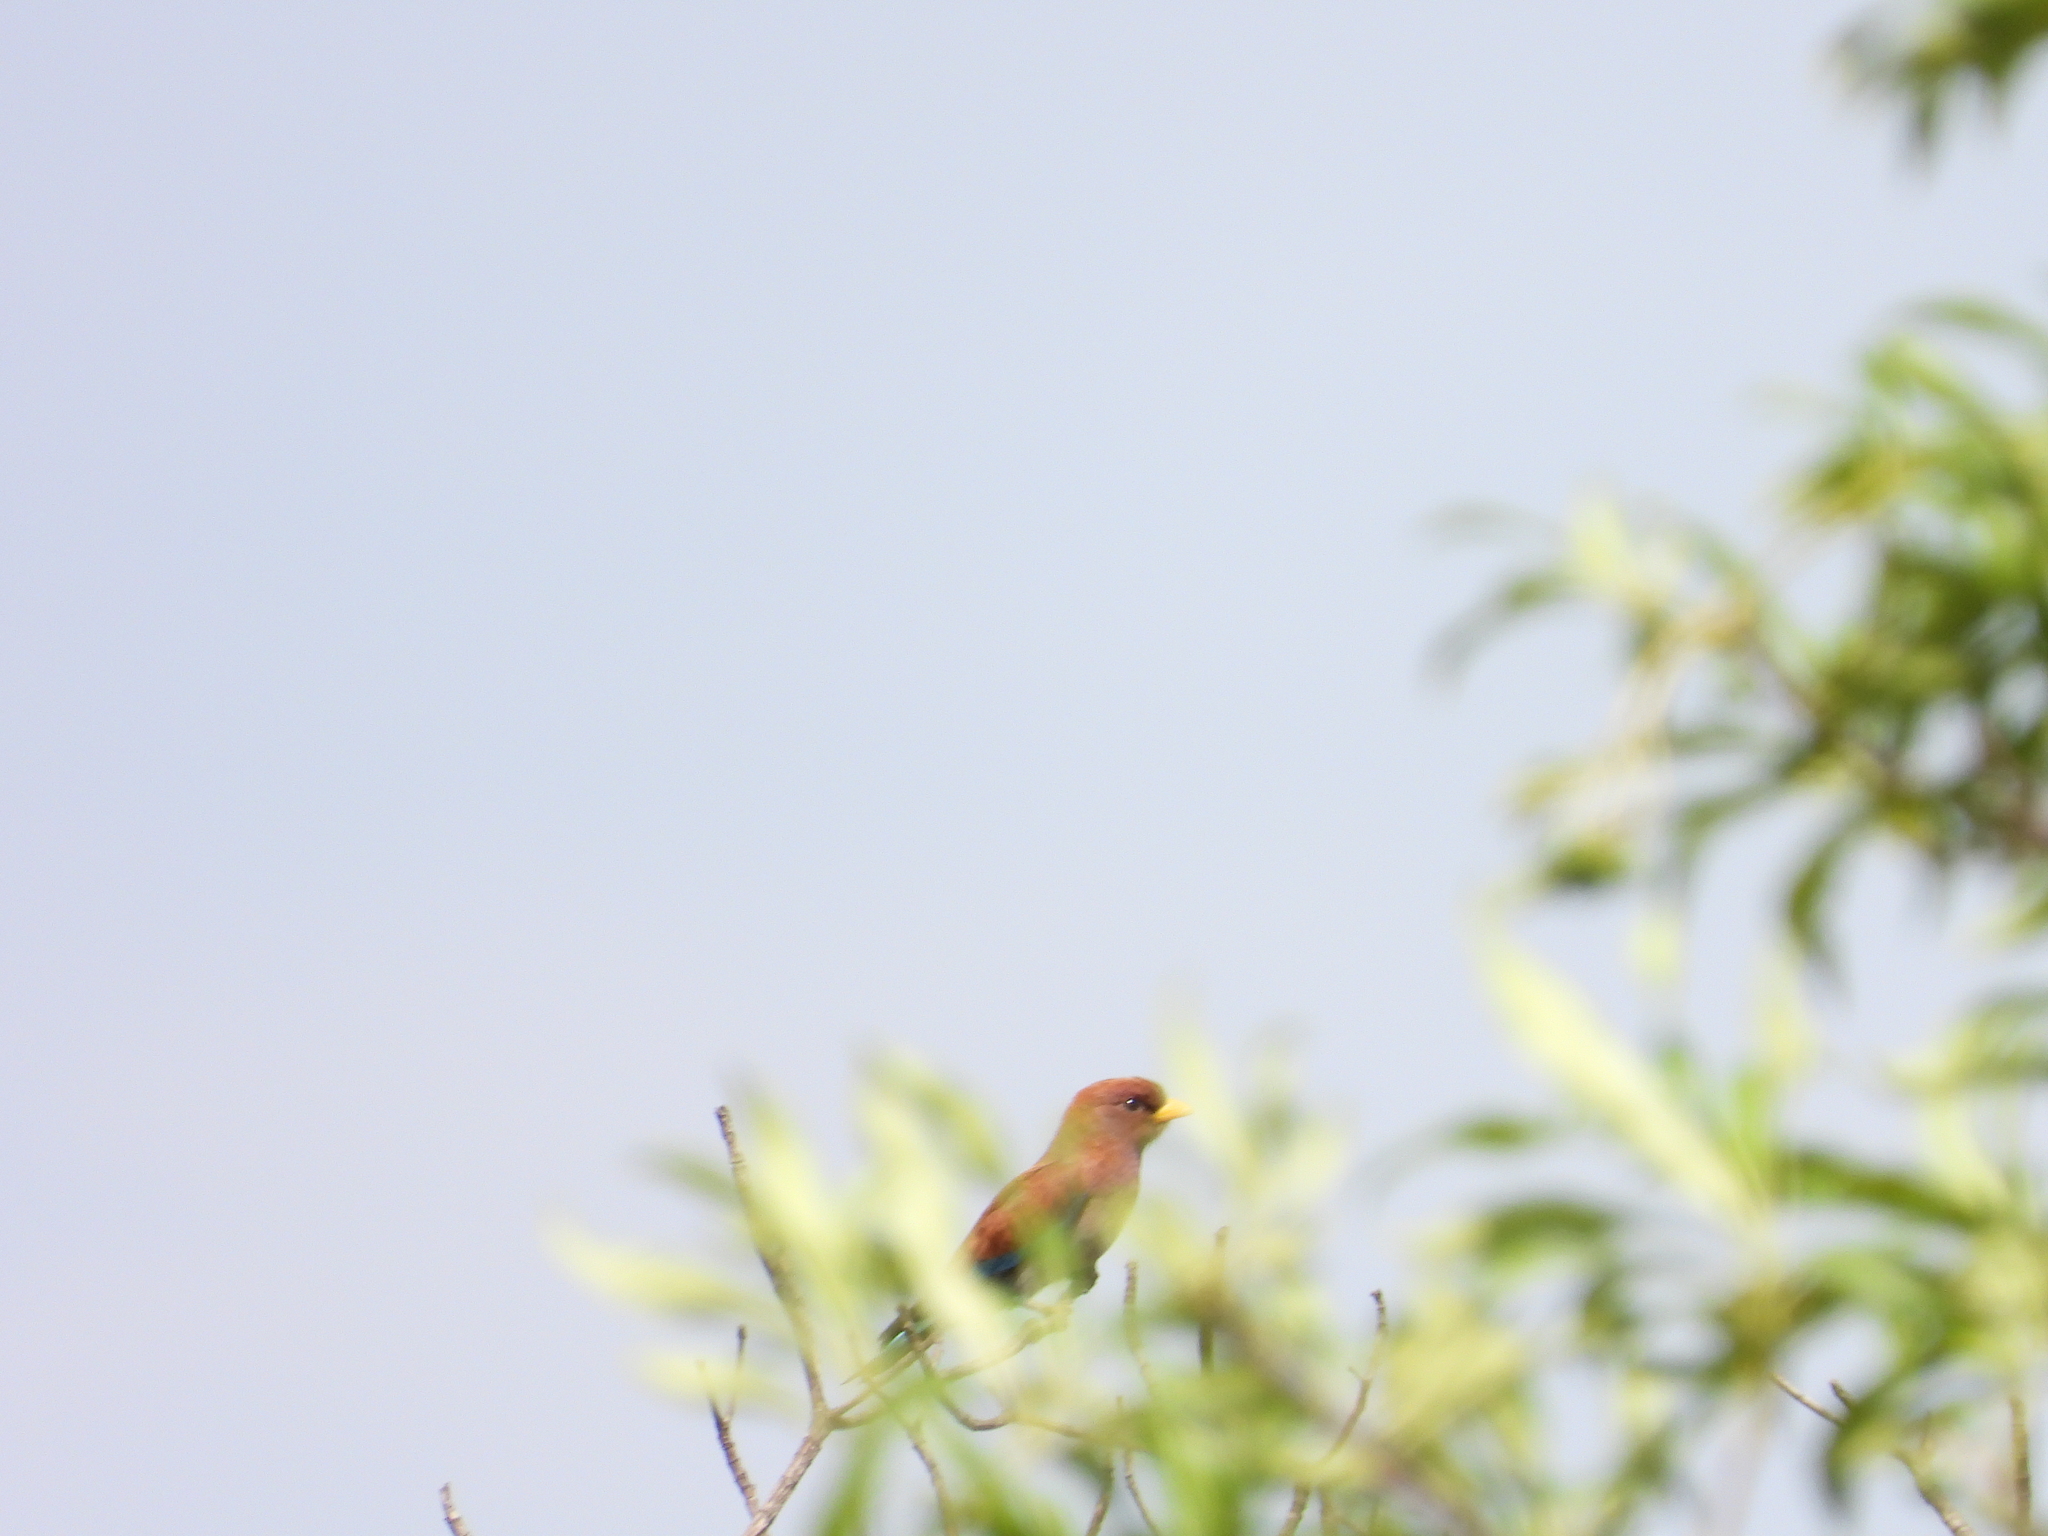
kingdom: Animalia
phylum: Chordata
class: Aves
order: Coraciiformes
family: Coraciidae
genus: Eurystomus
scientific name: Eurystomus glaucurus
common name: Broad-billed roller
